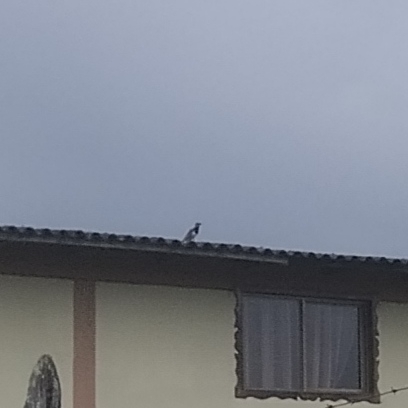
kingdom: Animalia
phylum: Chordata
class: Aves
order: Charadriiformes
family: Charadriidae
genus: Vanellus
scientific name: Vanellus chilensis
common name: Southern lapwing
